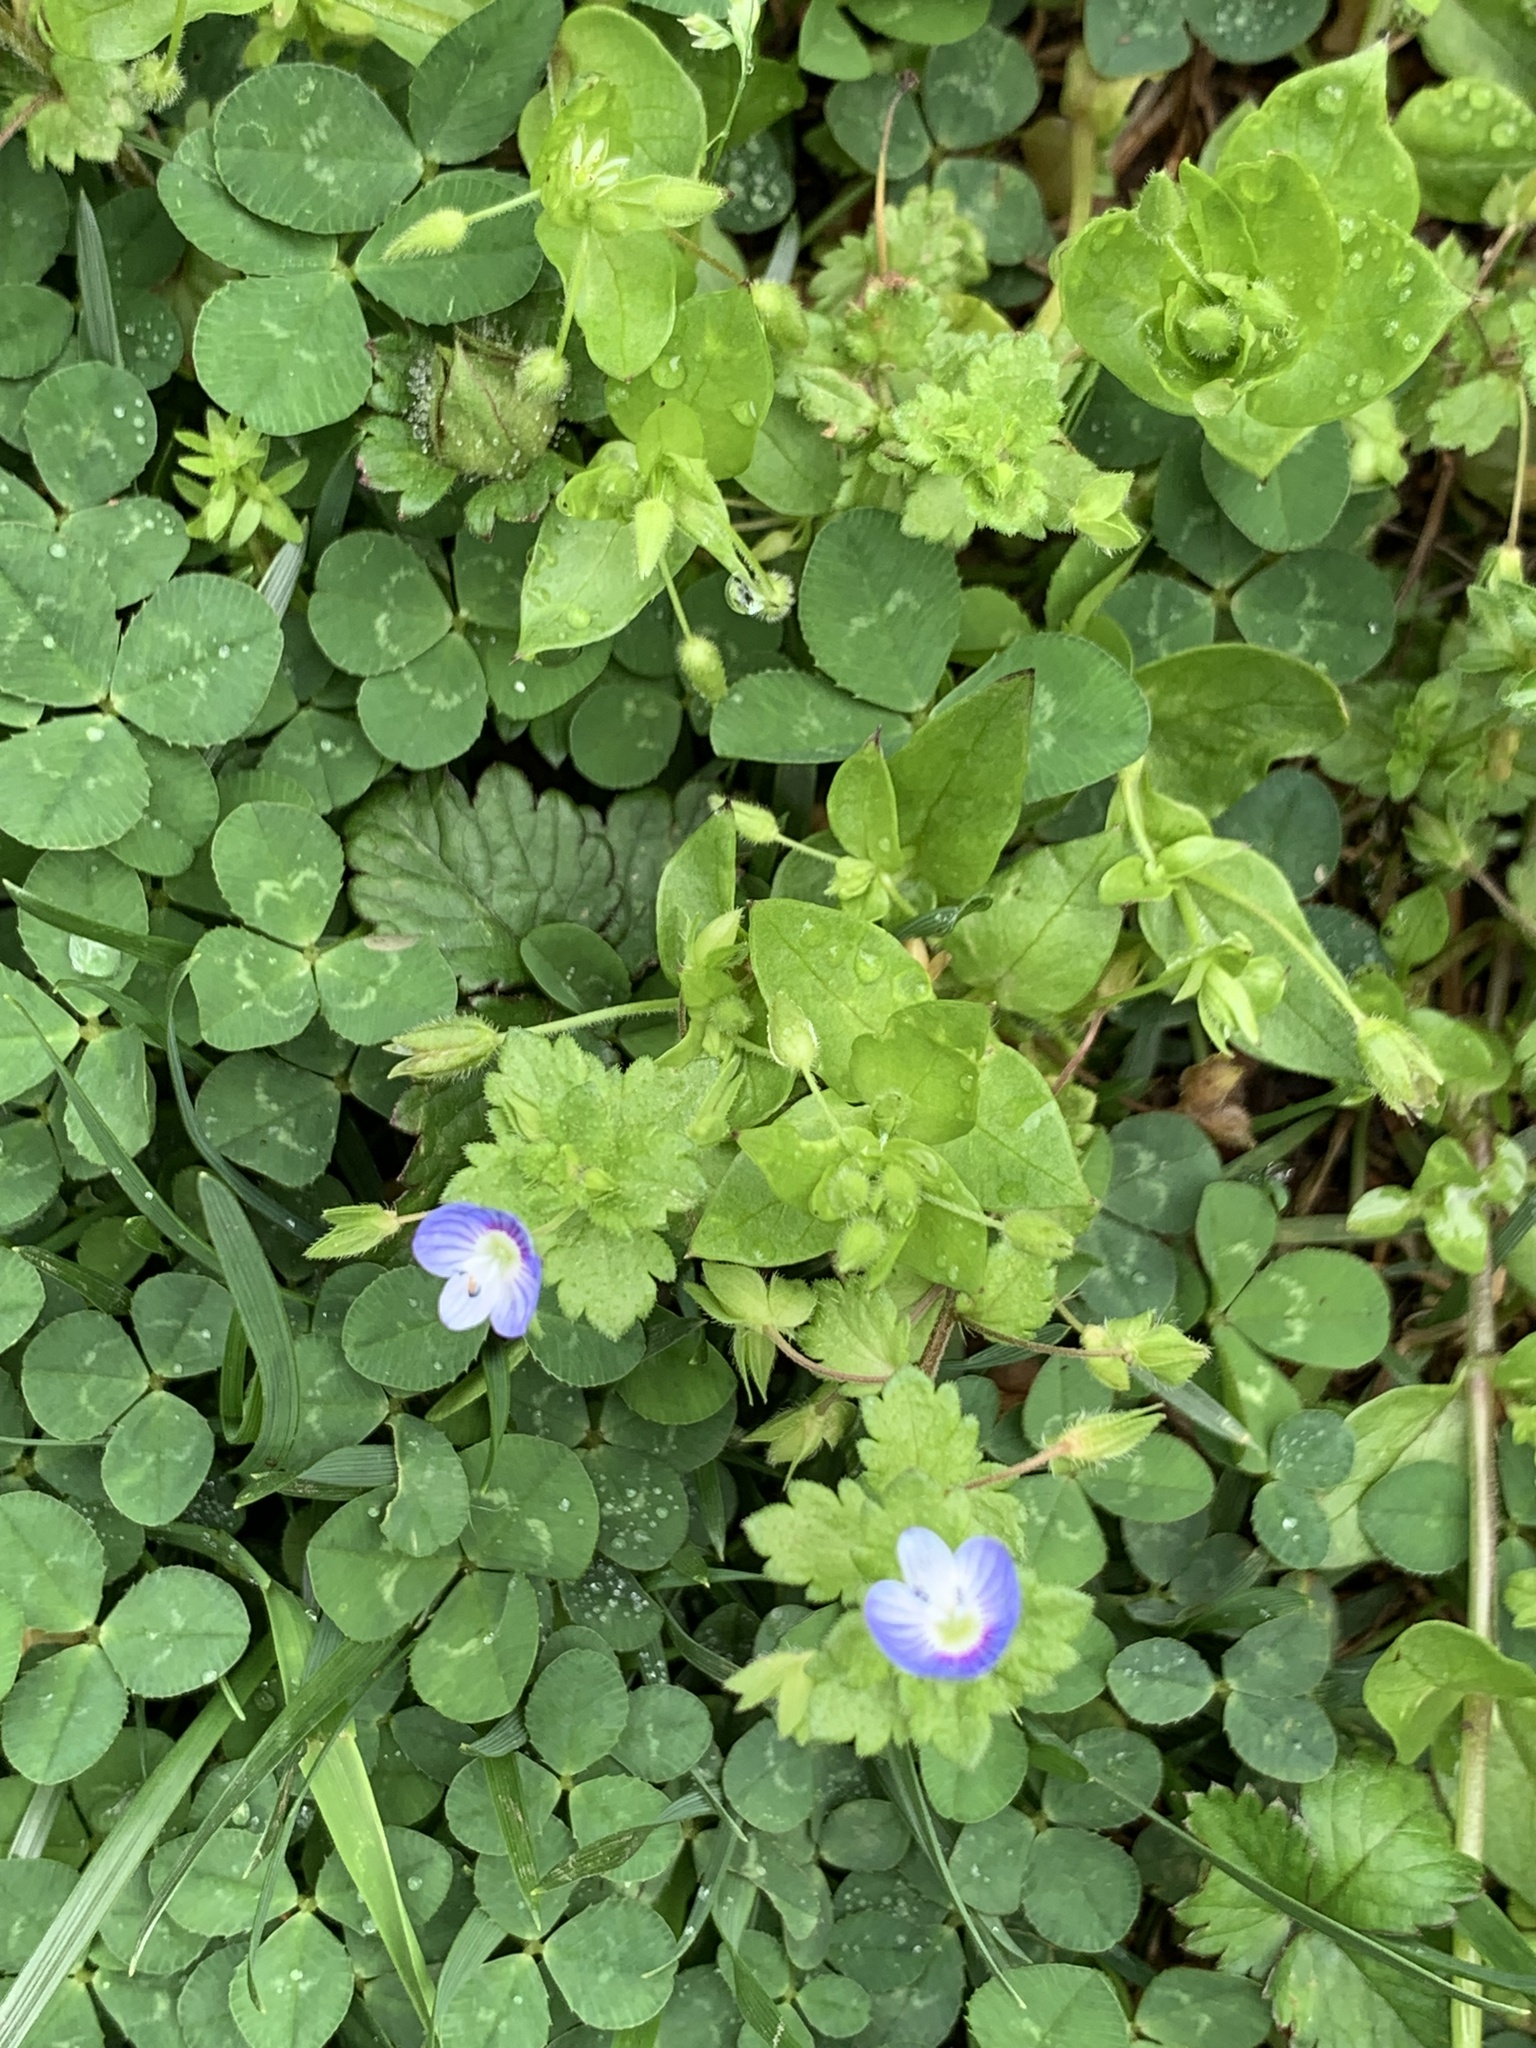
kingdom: Plantae
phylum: Tracheophyta
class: Magnoliopsida
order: Lamiales
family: Plantaginaceae
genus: Veronica
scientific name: Veronica persica
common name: Common field-speedwell
